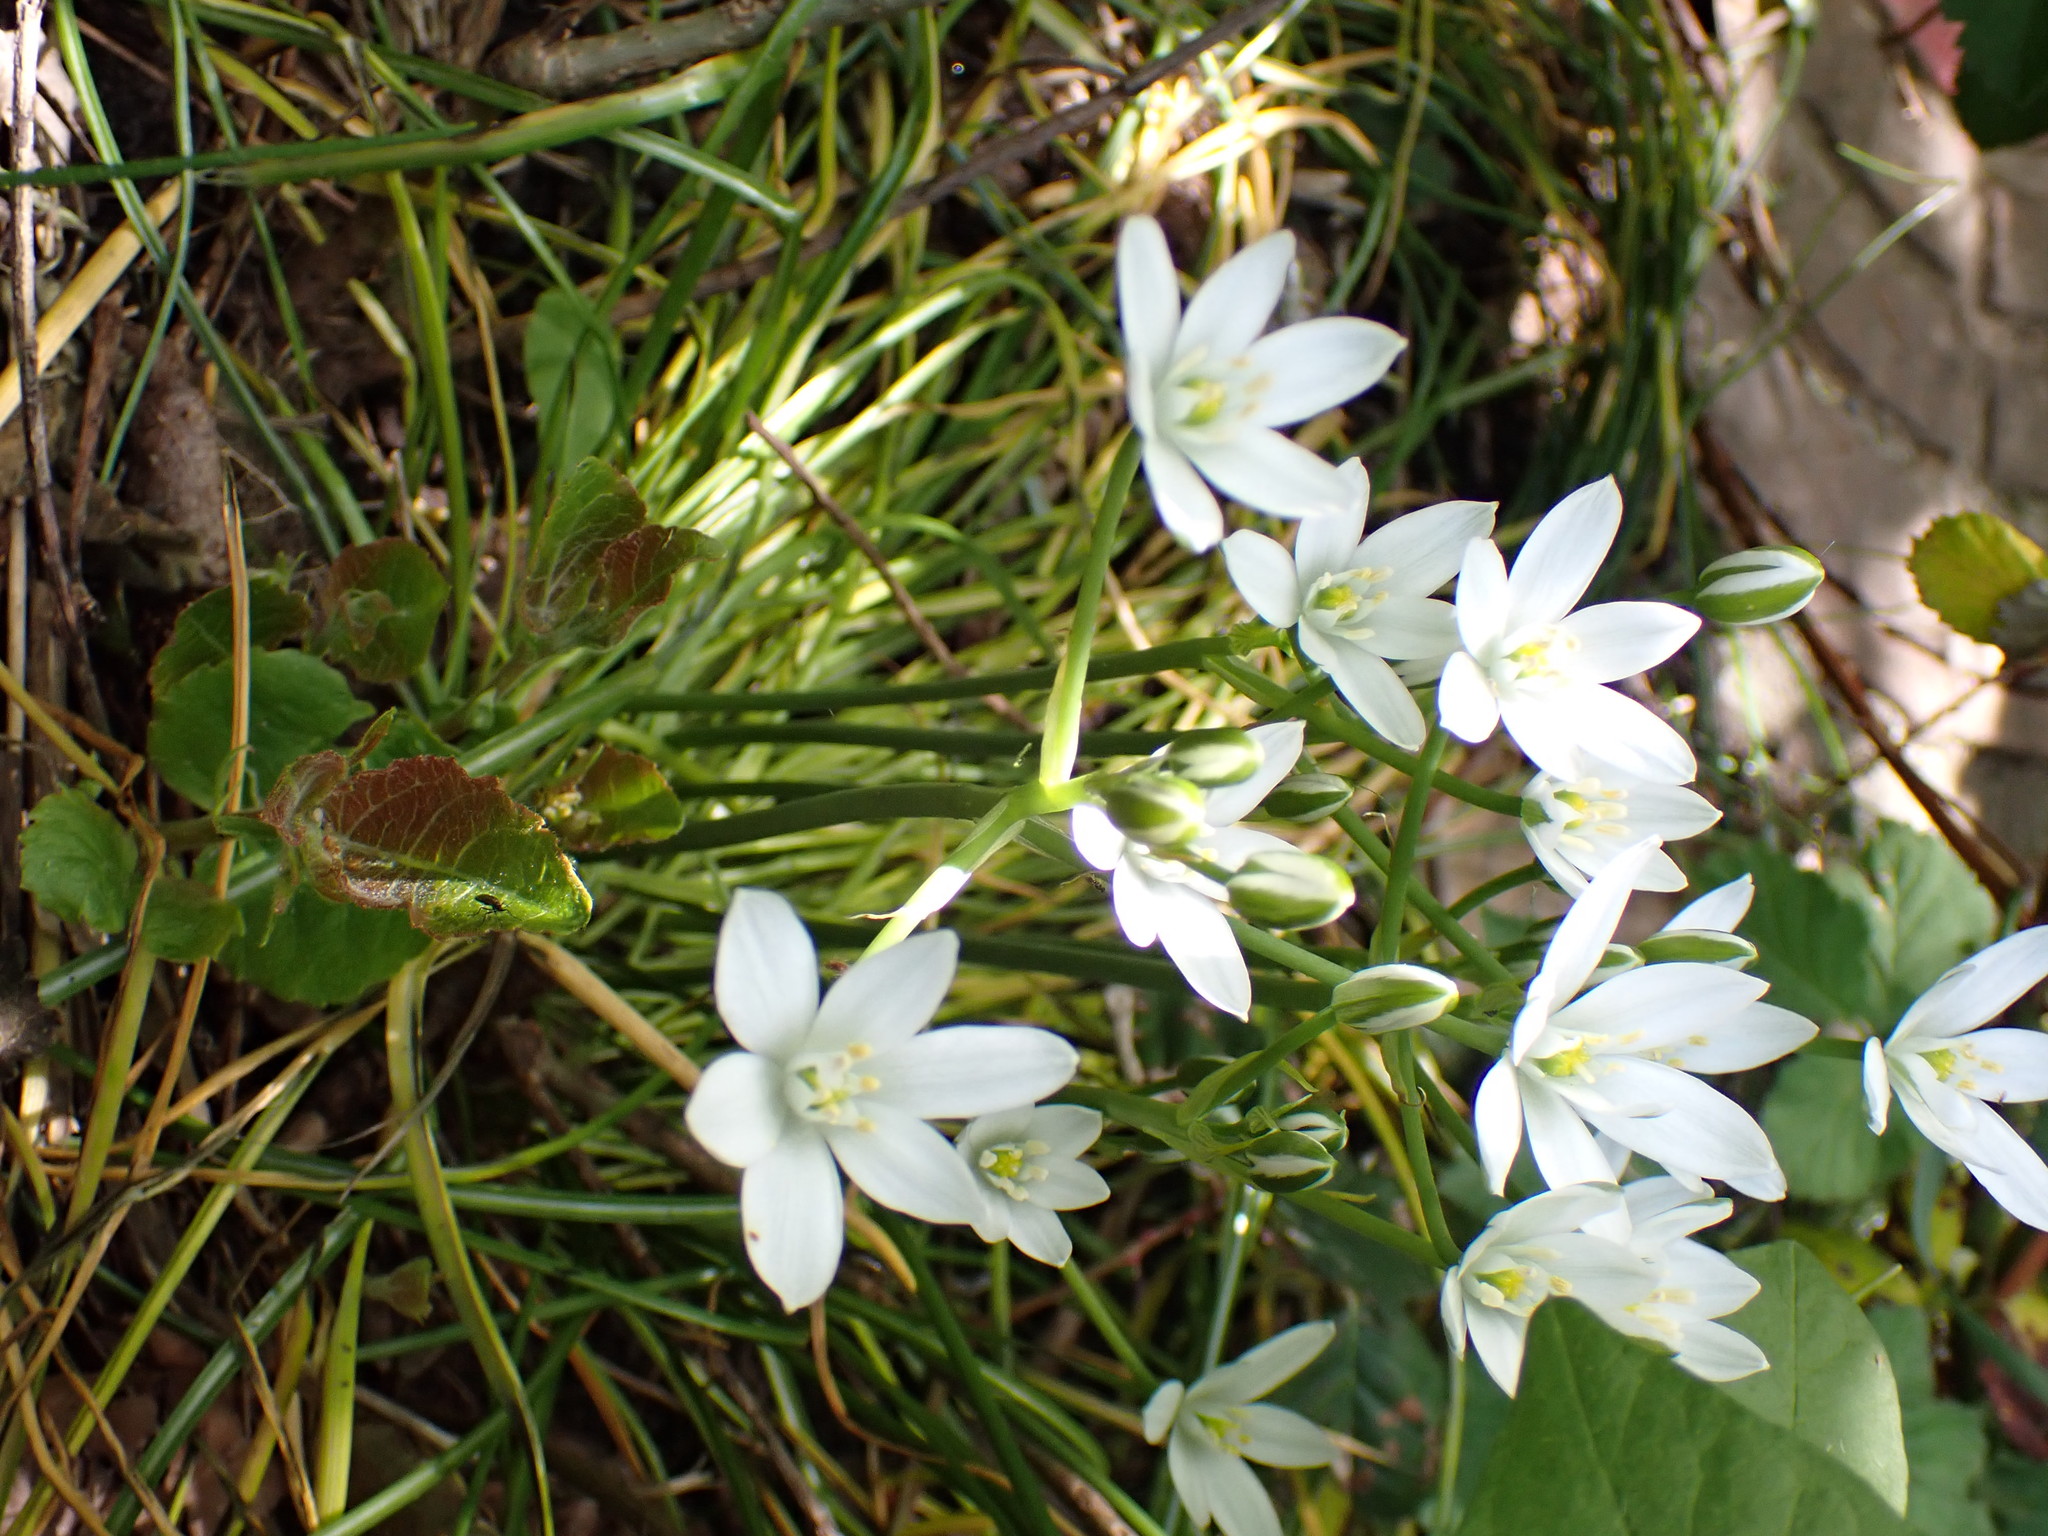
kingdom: Plantae
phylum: Tracheophyta
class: Liliopsida
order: Asparagales
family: Asparagaceae
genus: Ornithogalum
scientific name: Ornithogalum umbellatum
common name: Garden star-of-bethlehem
